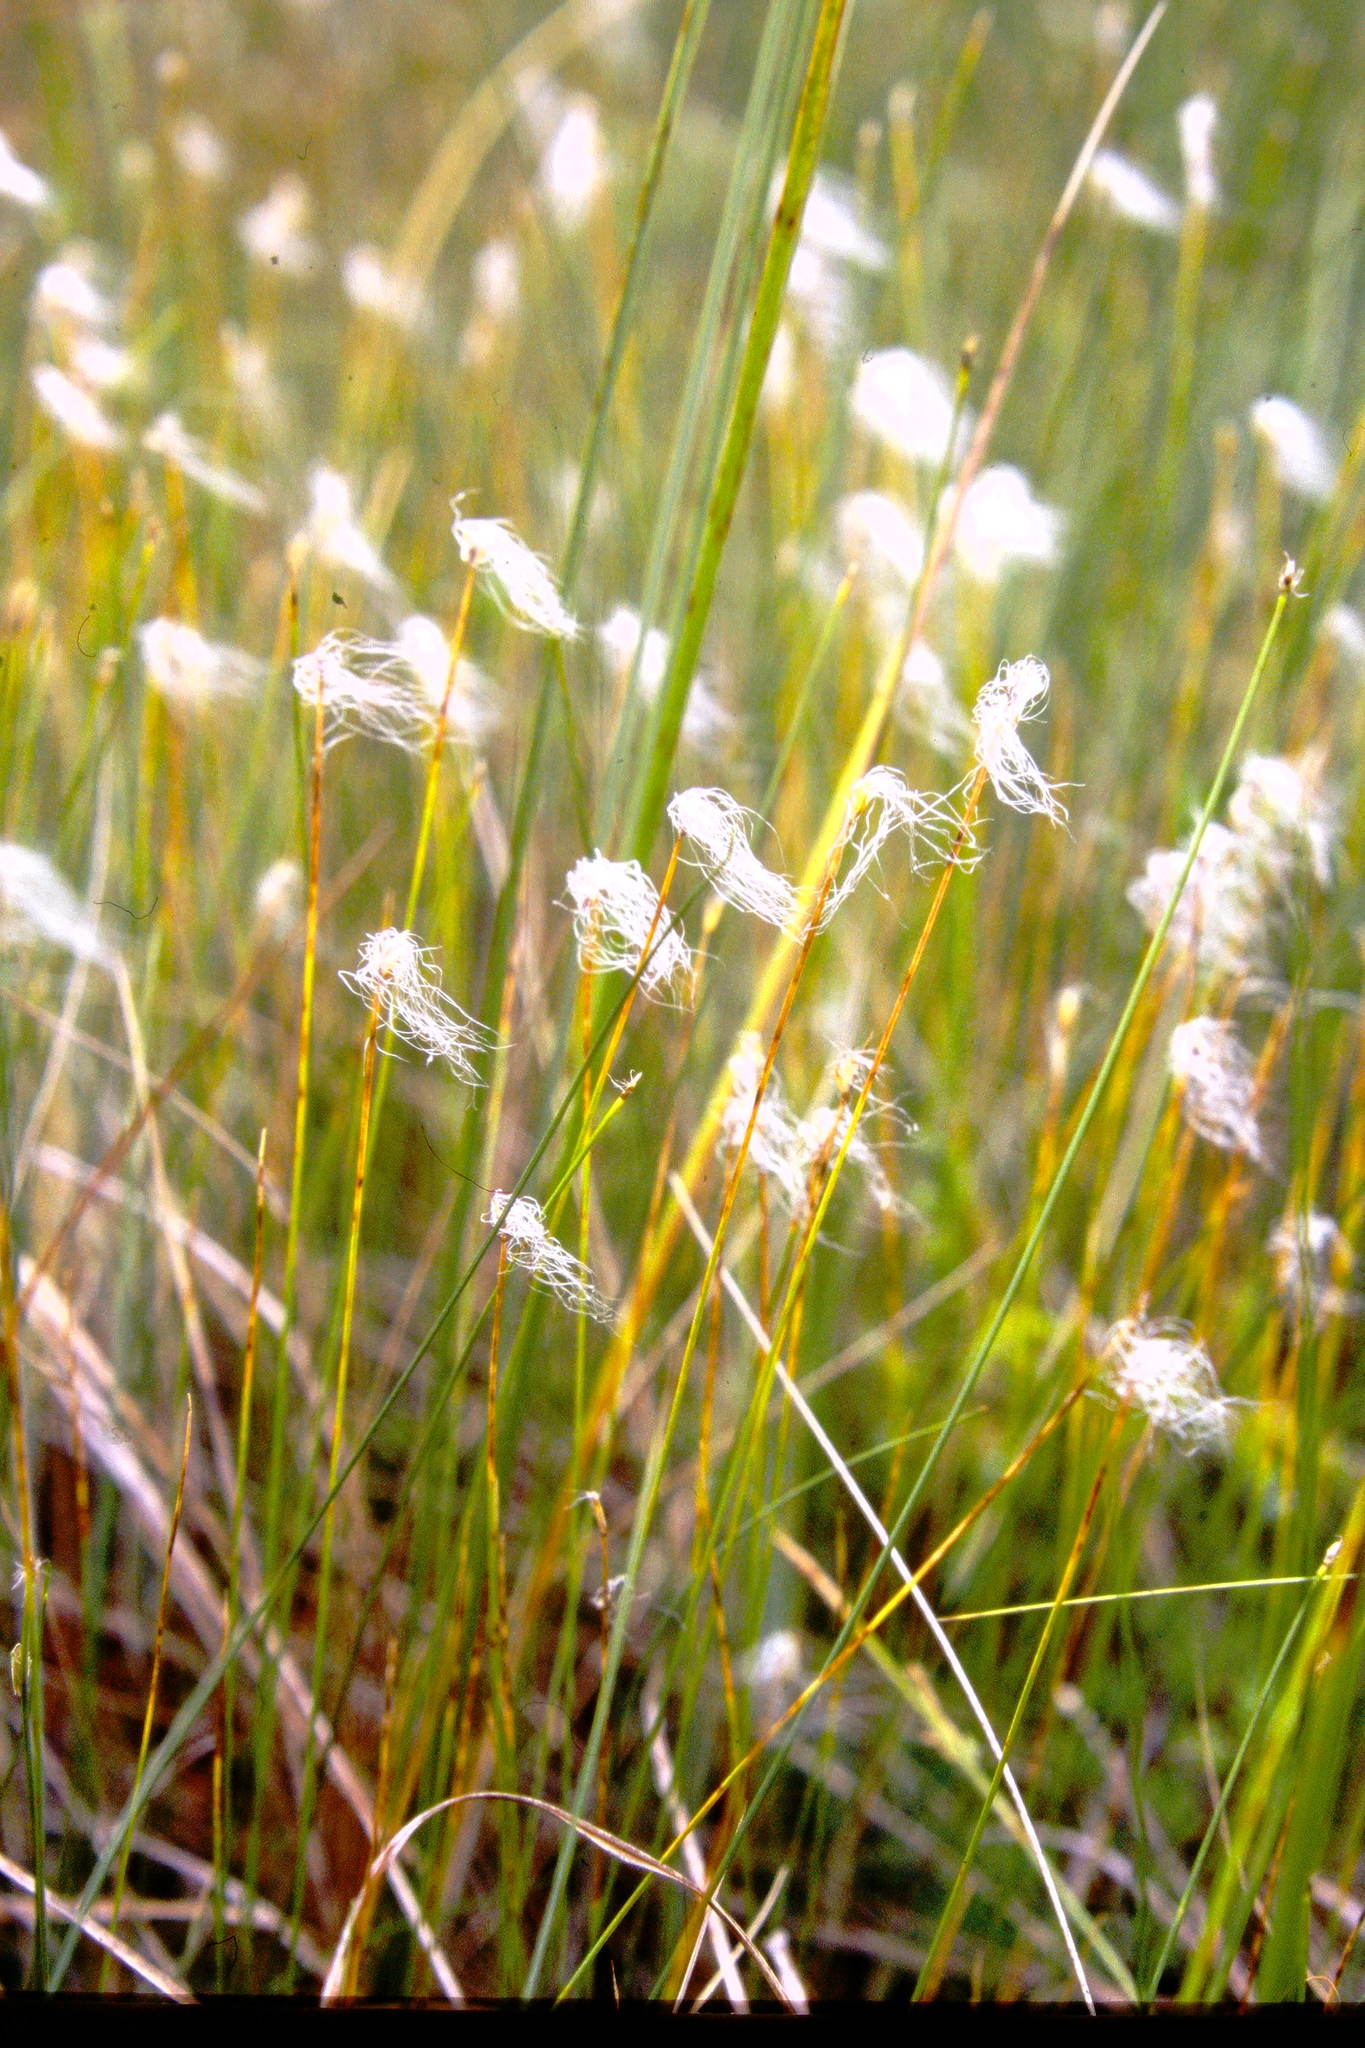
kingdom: Plantae
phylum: Tracheophyta
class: Liliopsida
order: Poales
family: Cyperaceae
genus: Trichophorum
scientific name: Trichophorum alpinum
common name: Alpine bulrush
